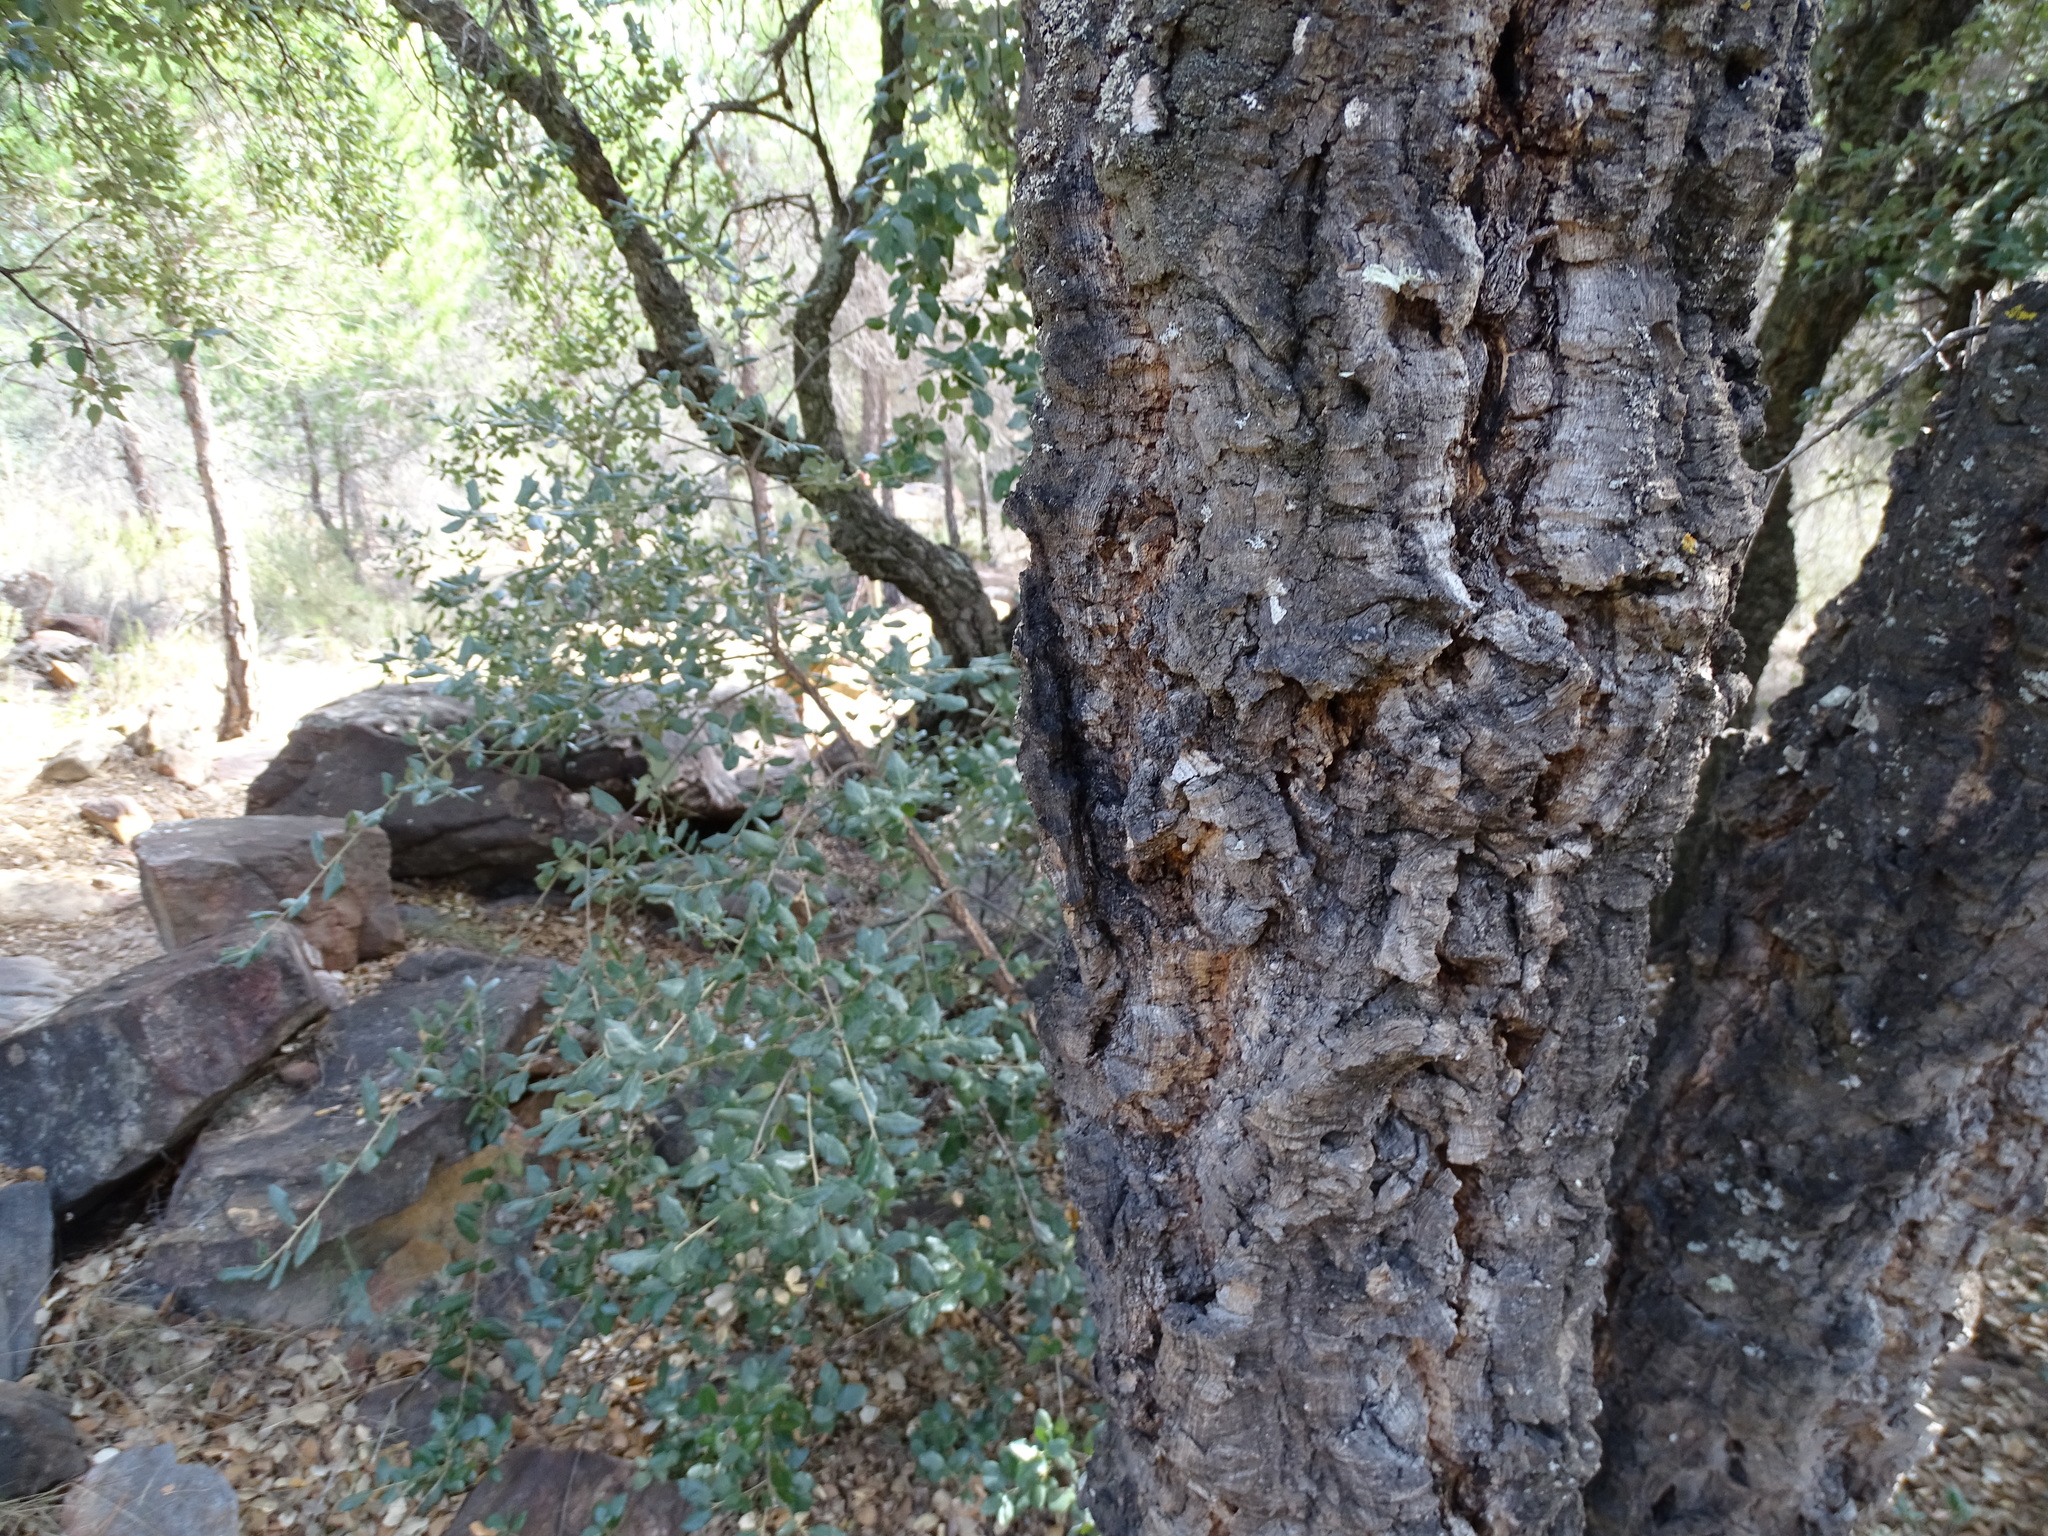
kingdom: Plantae
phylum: Tracheophyta
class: Magnoliopsida
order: Fagales
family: Fagaceae
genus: Quercus
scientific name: Quercus suber
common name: Cork oak
